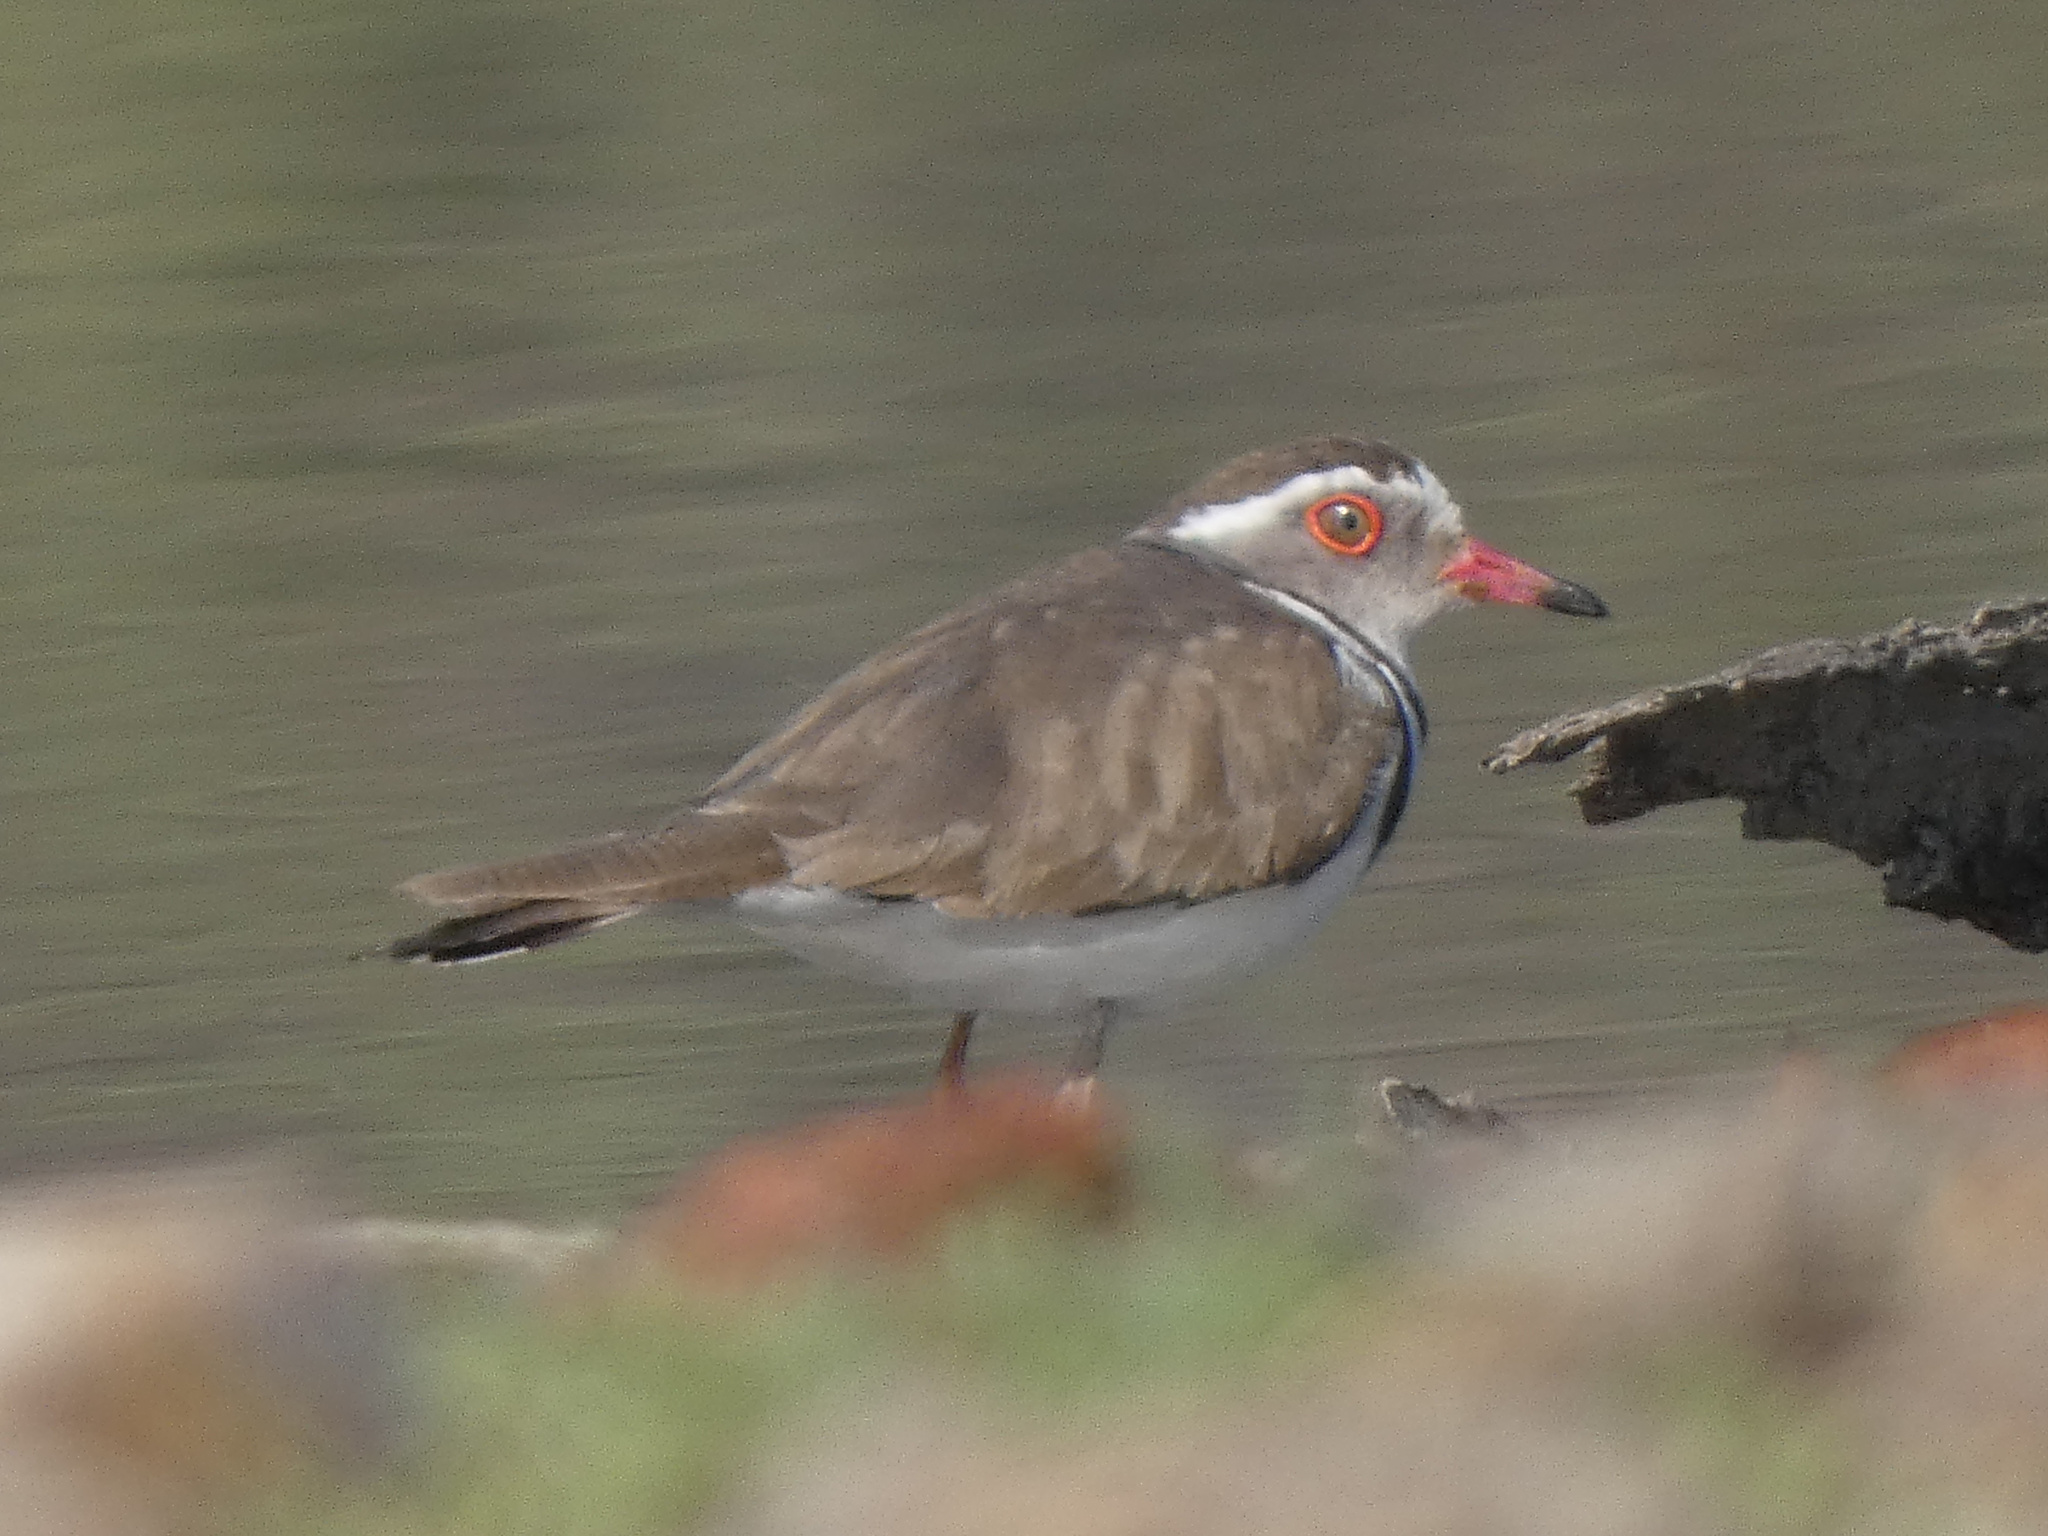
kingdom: Animalia
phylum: Chordata
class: Aves
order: Charadriiformes
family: Charadriidae
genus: Charadrius
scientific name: Charadrius tricollaris
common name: Three-banded plover
